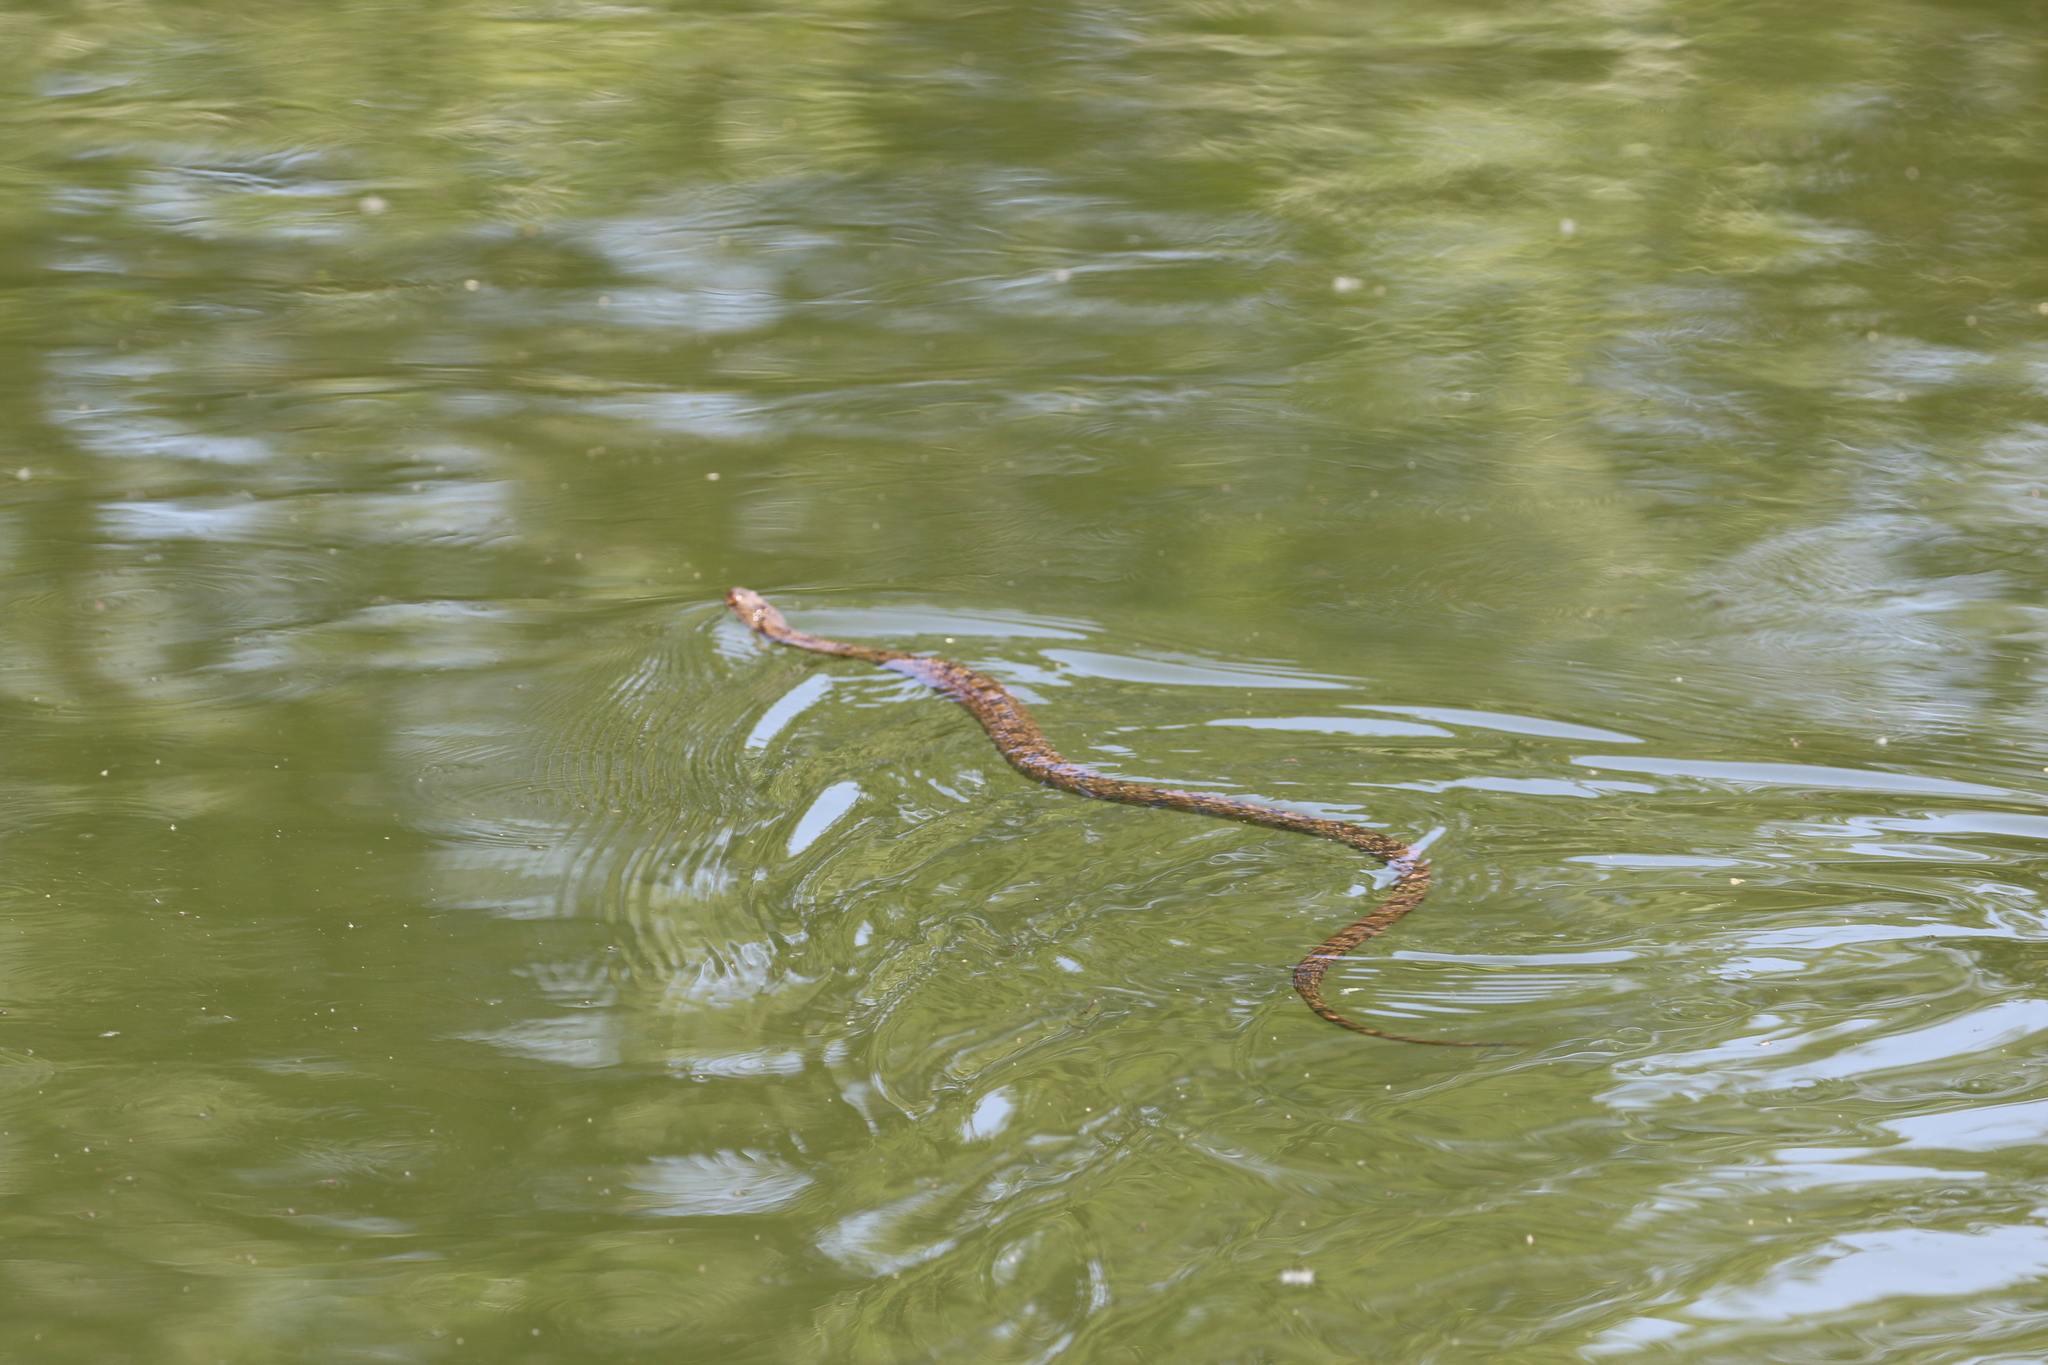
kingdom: Animalia
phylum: Chordata
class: Squamata
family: Colubridae
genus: Nerodia
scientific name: Nerodia rhombifer
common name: Diamondback water snake
